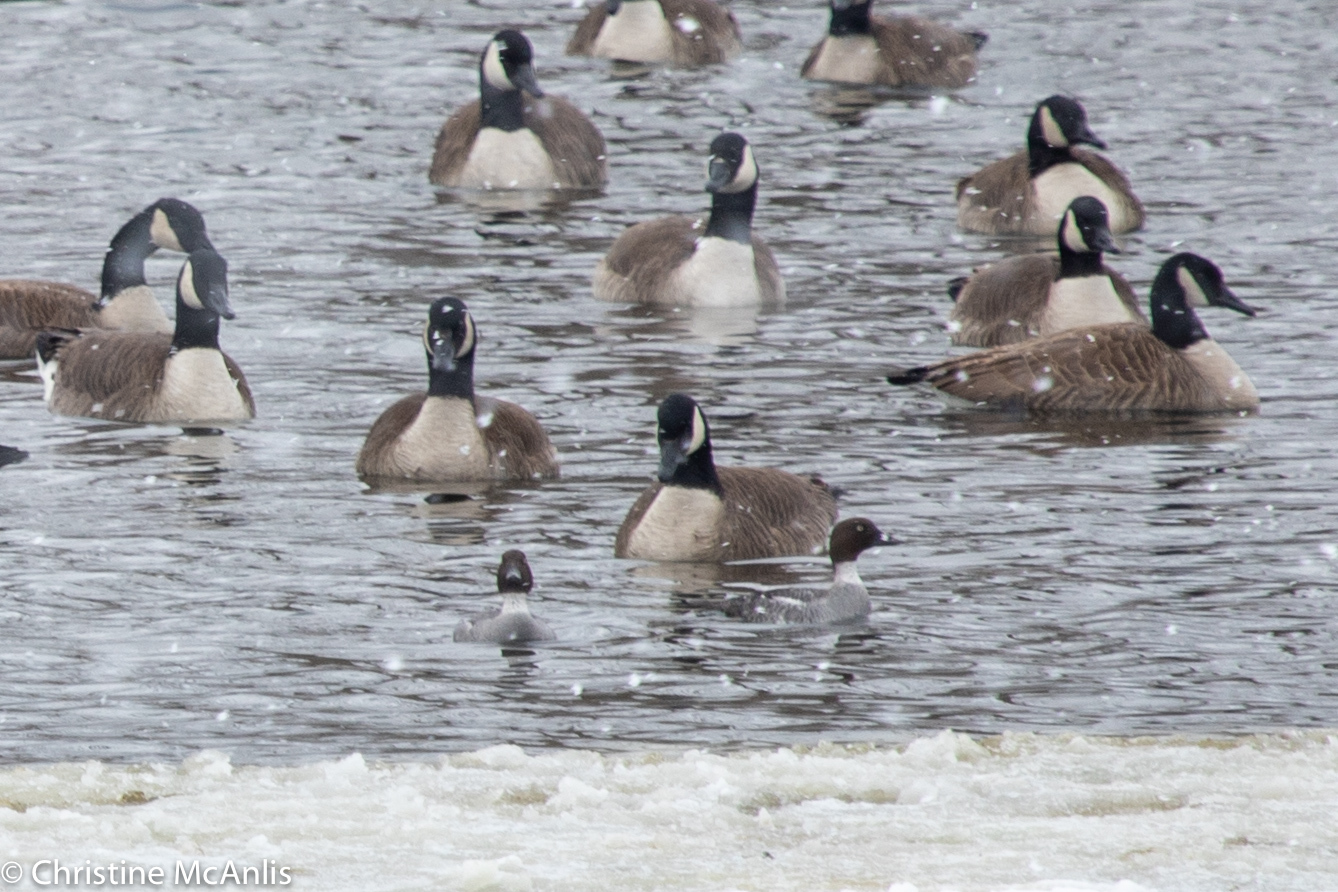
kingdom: Animalia
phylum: Chordata
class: Aves
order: Anseriformes
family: Anatidae
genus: Bucephala
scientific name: Bucephala clangula
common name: Common goldeneye
